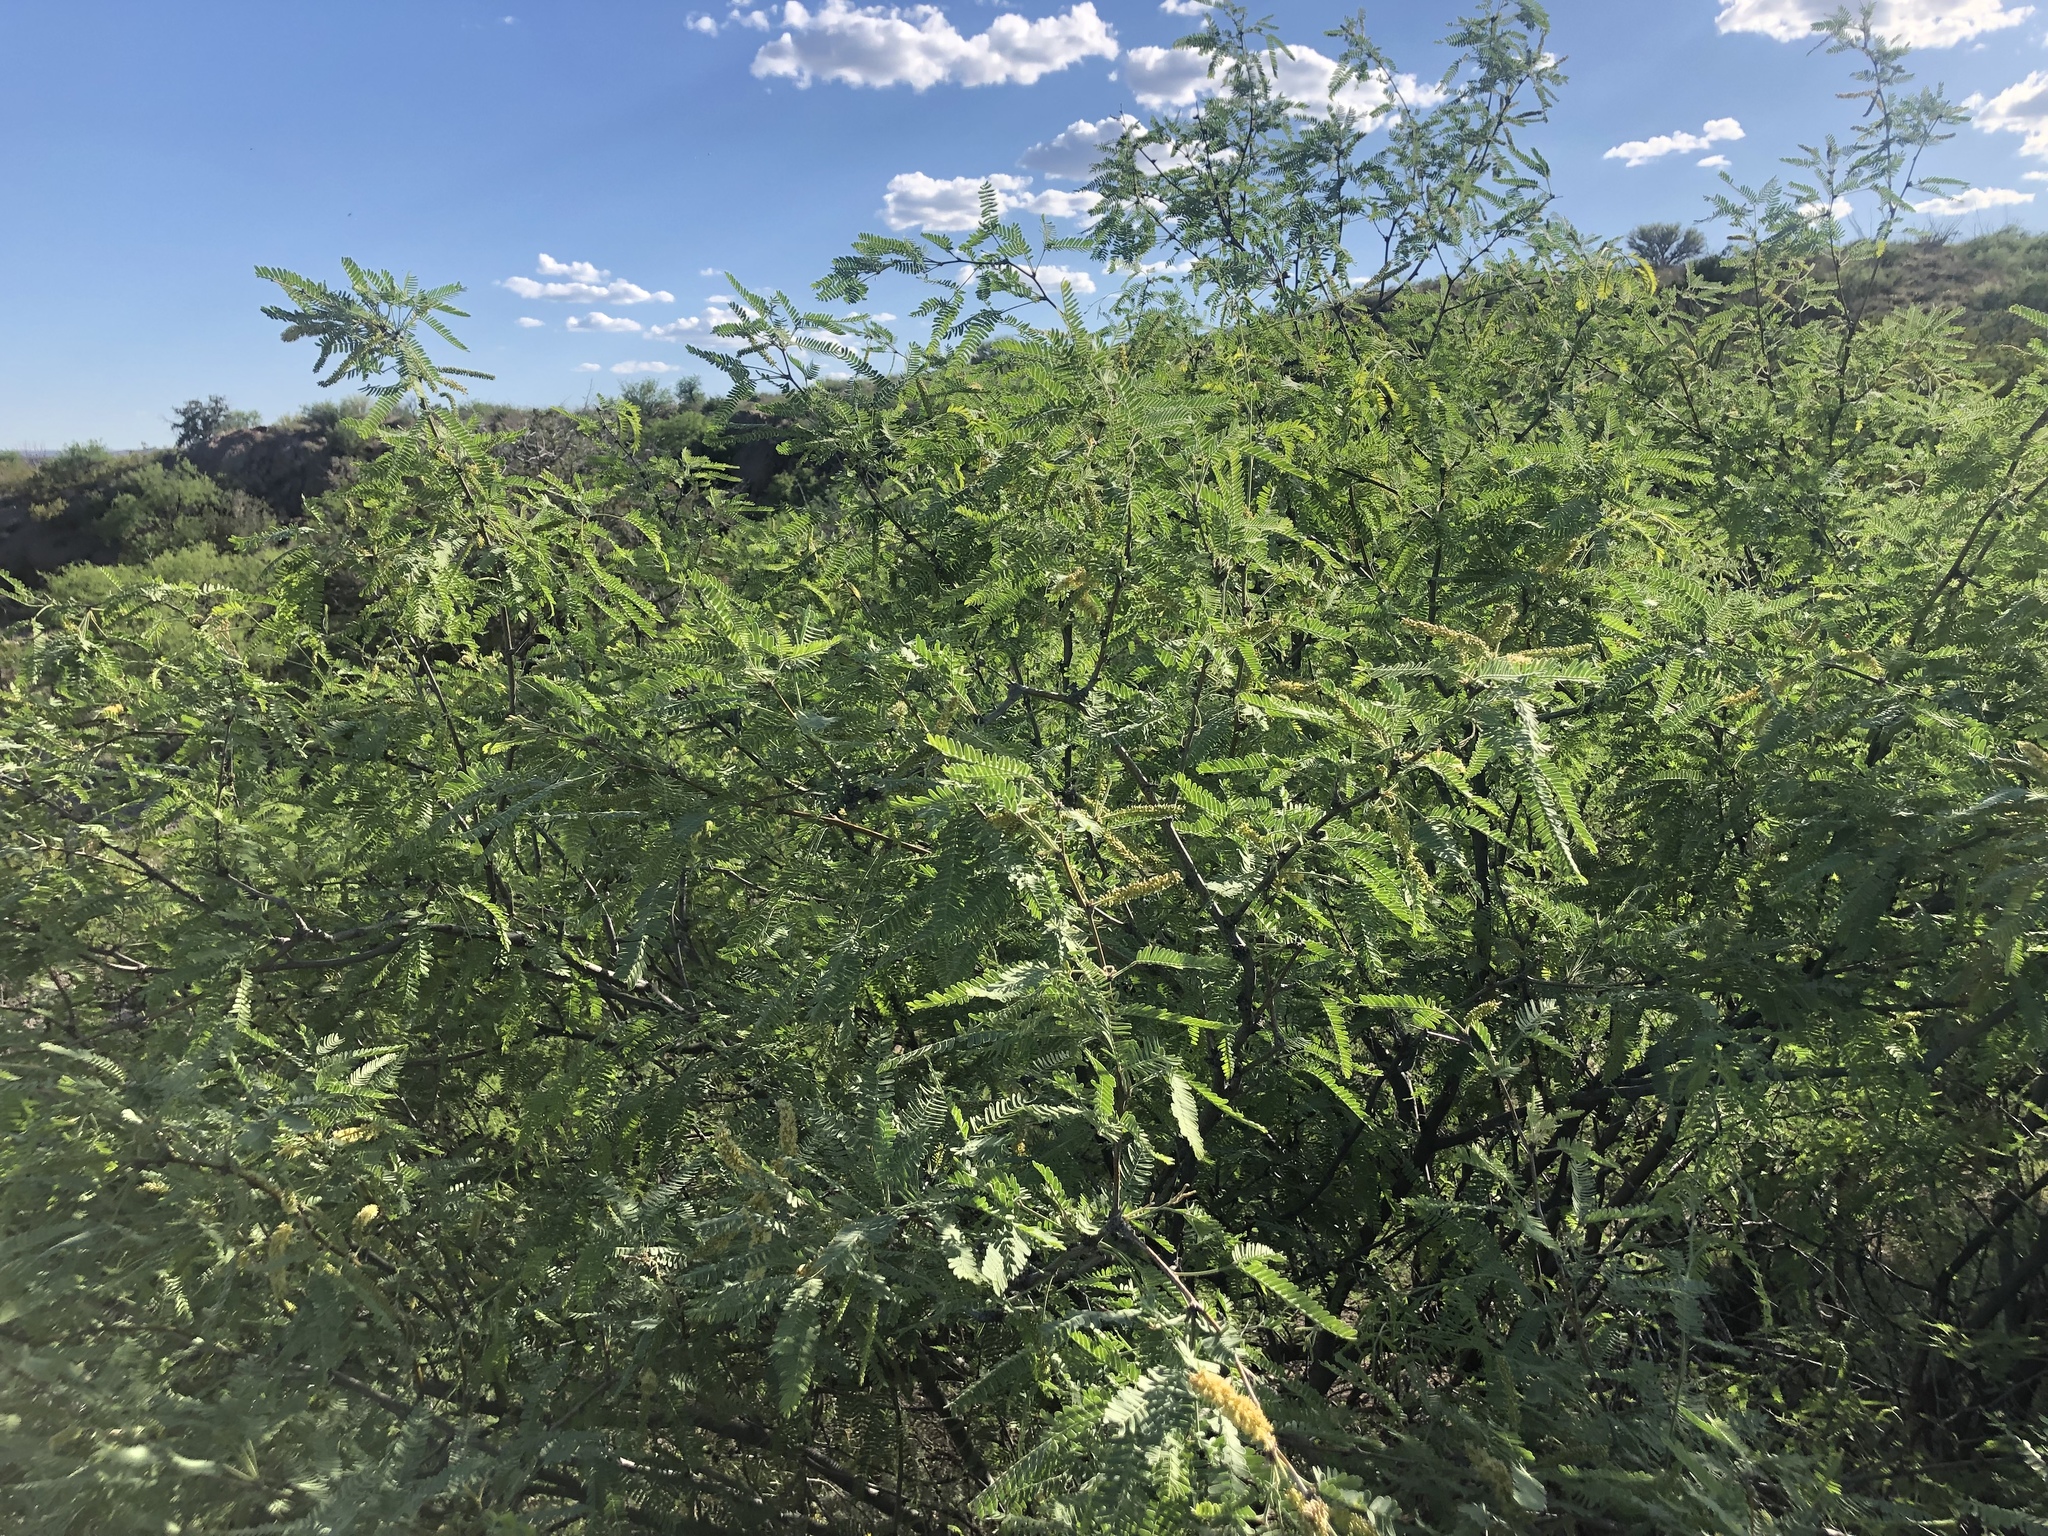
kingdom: Plantae
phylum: Tracheophyta
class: Magnoliopsida
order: Fabales
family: Fabaceae
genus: Prosopis
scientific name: Prosopis velutina
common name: Velvet mesquite
